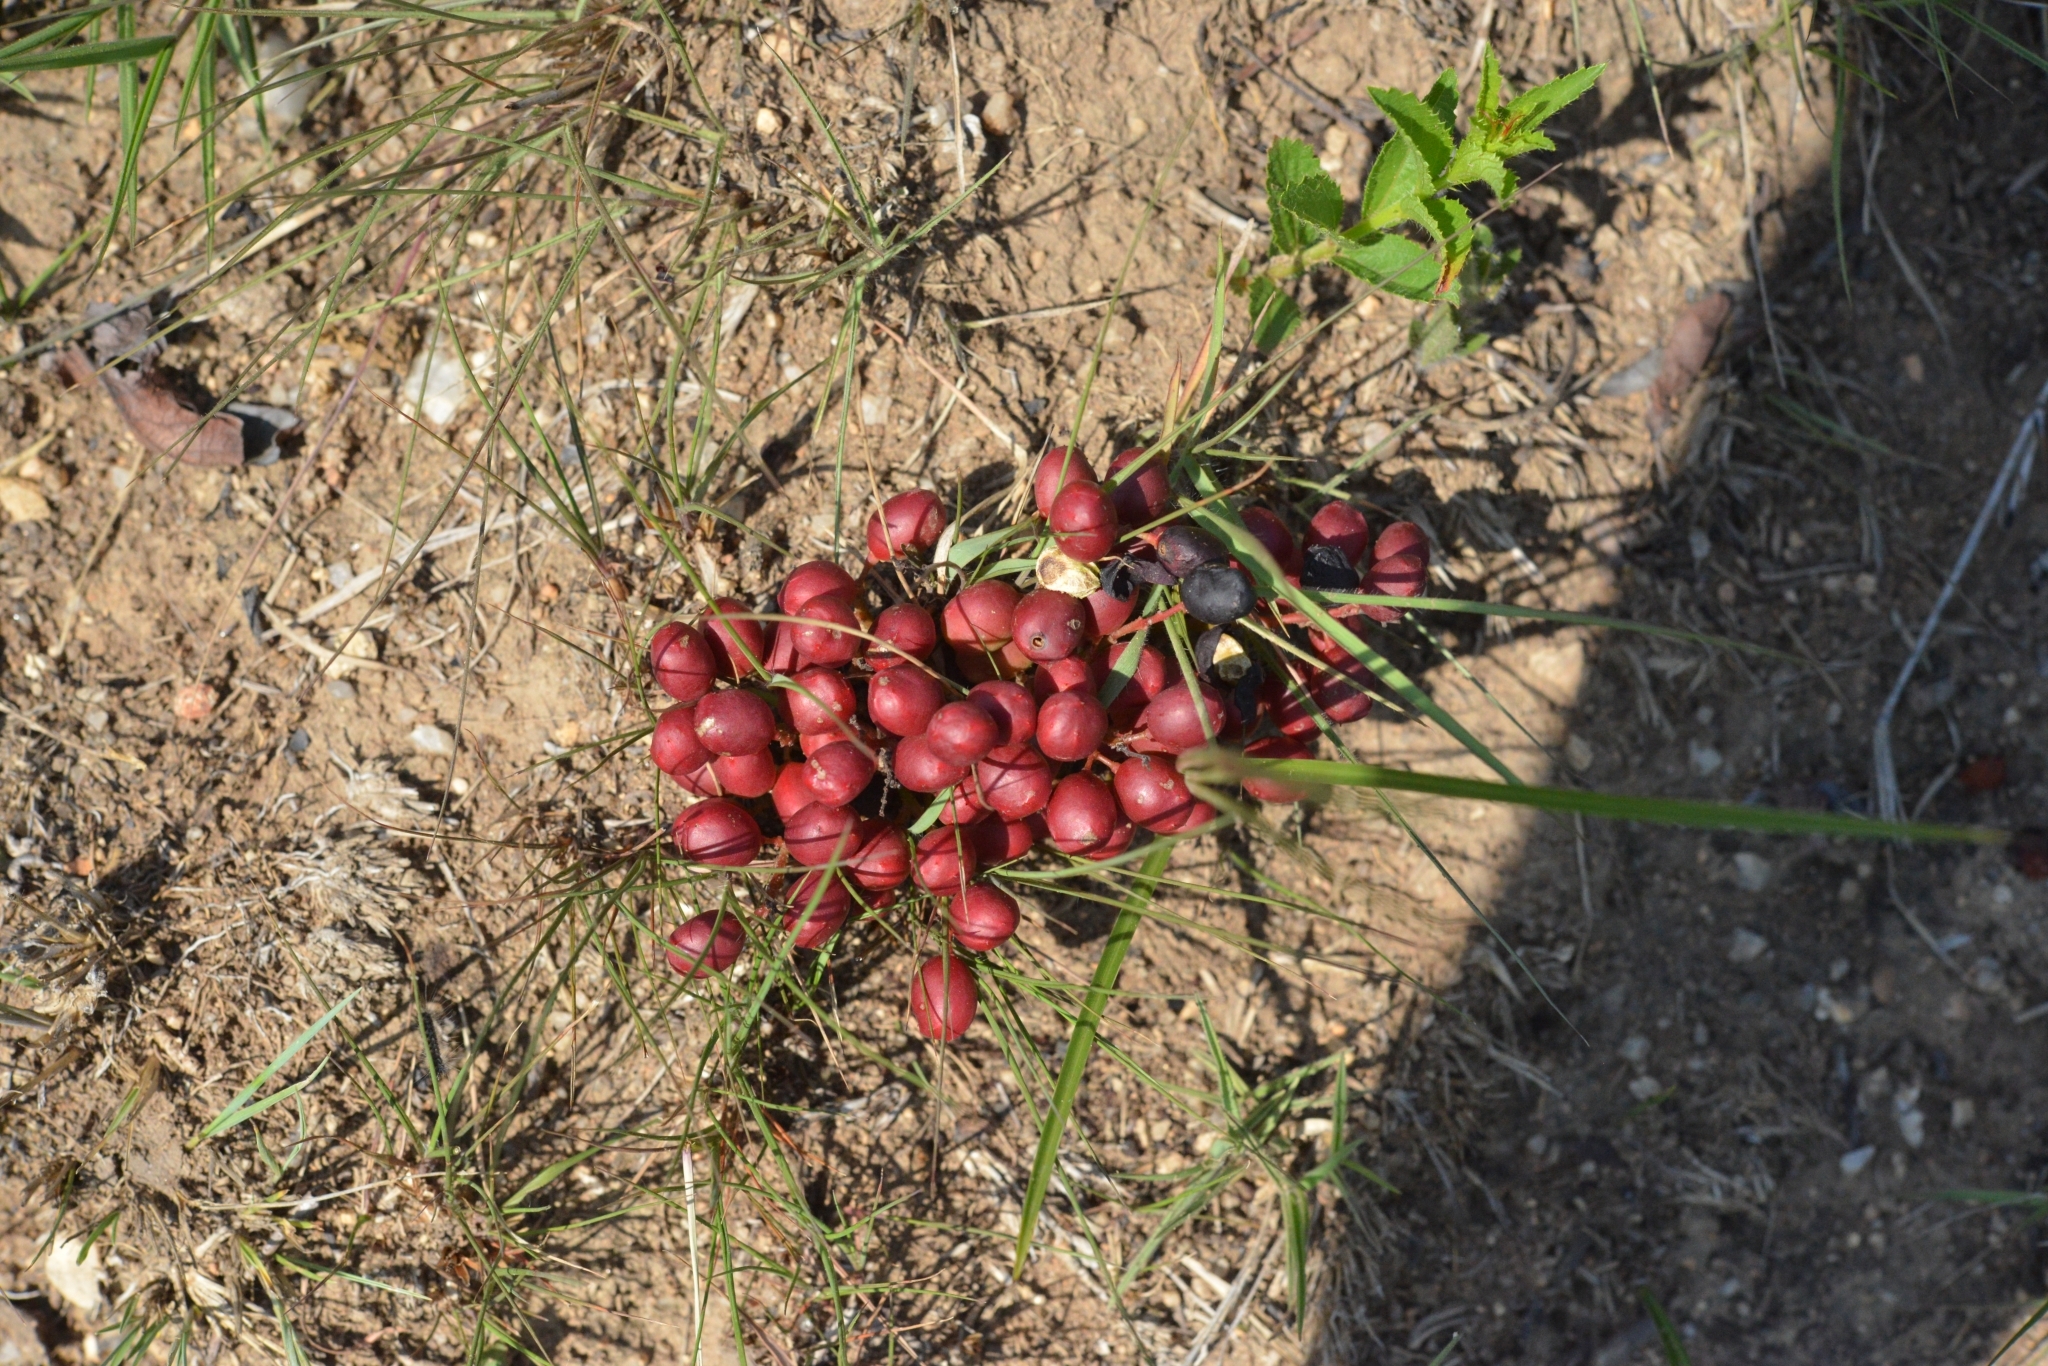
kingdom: Plantae
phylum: Tracheophyta
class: Magnoliopsida
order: Sapindales
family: Anacardiaceae
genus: Lannea
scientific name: Lannea edulis
